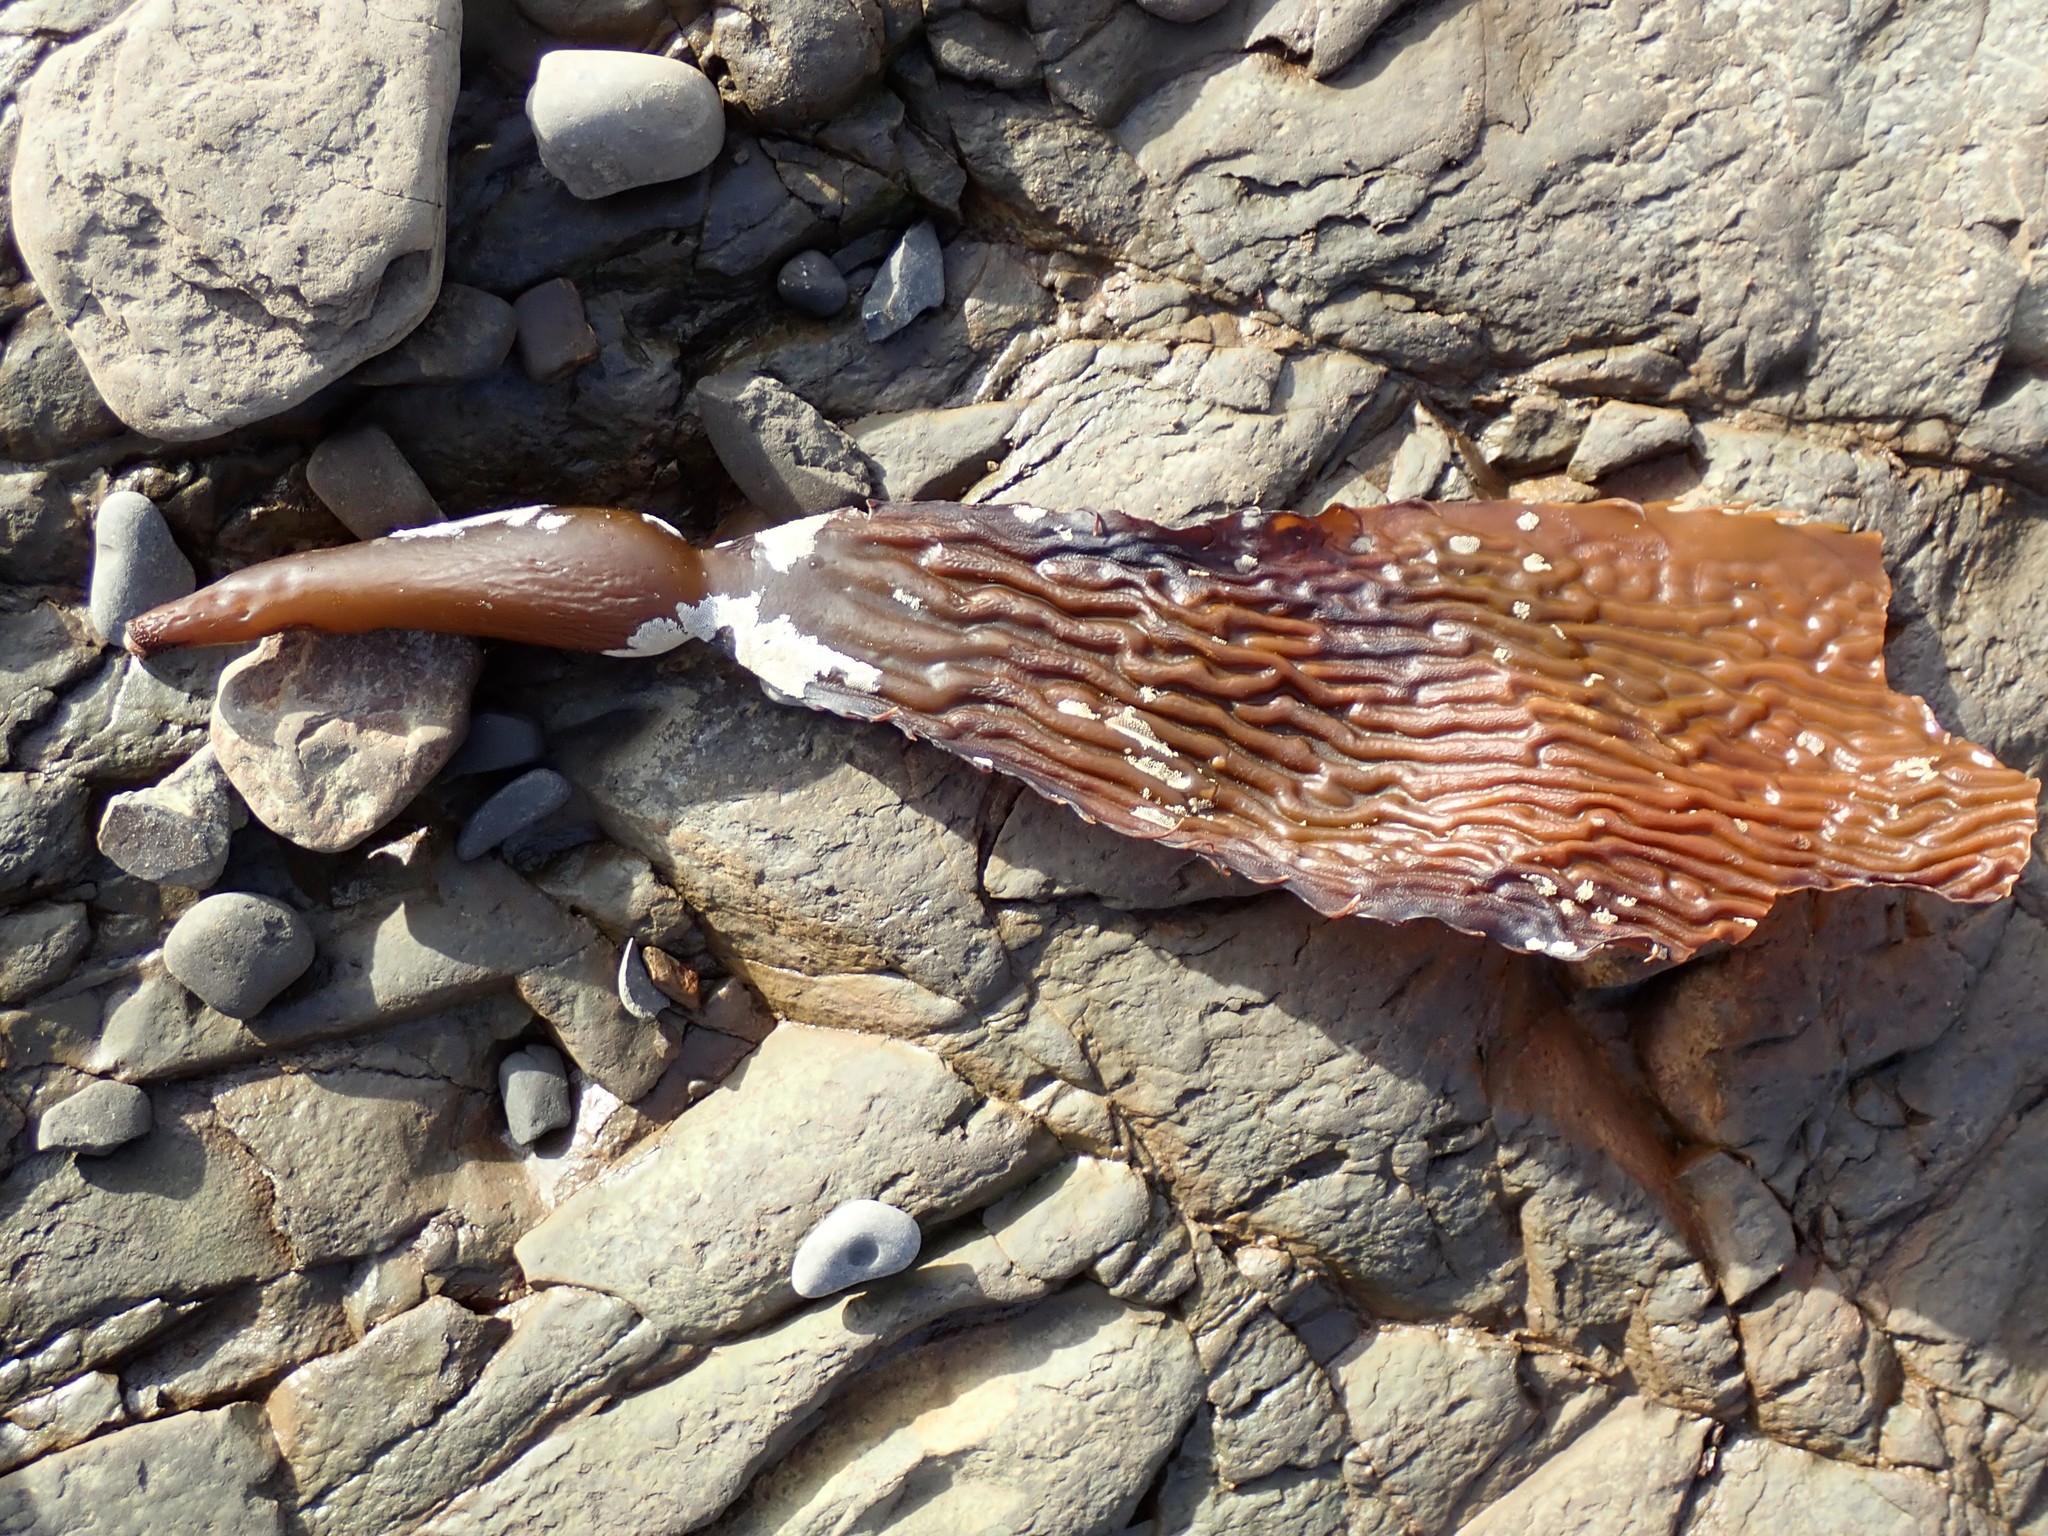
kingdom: Chromista
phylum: Ochrophyta
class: Phaeophyceae
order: Laminariales
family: Laminariaceae
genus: Macrocystis
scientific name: Macrocystis pyrifera
